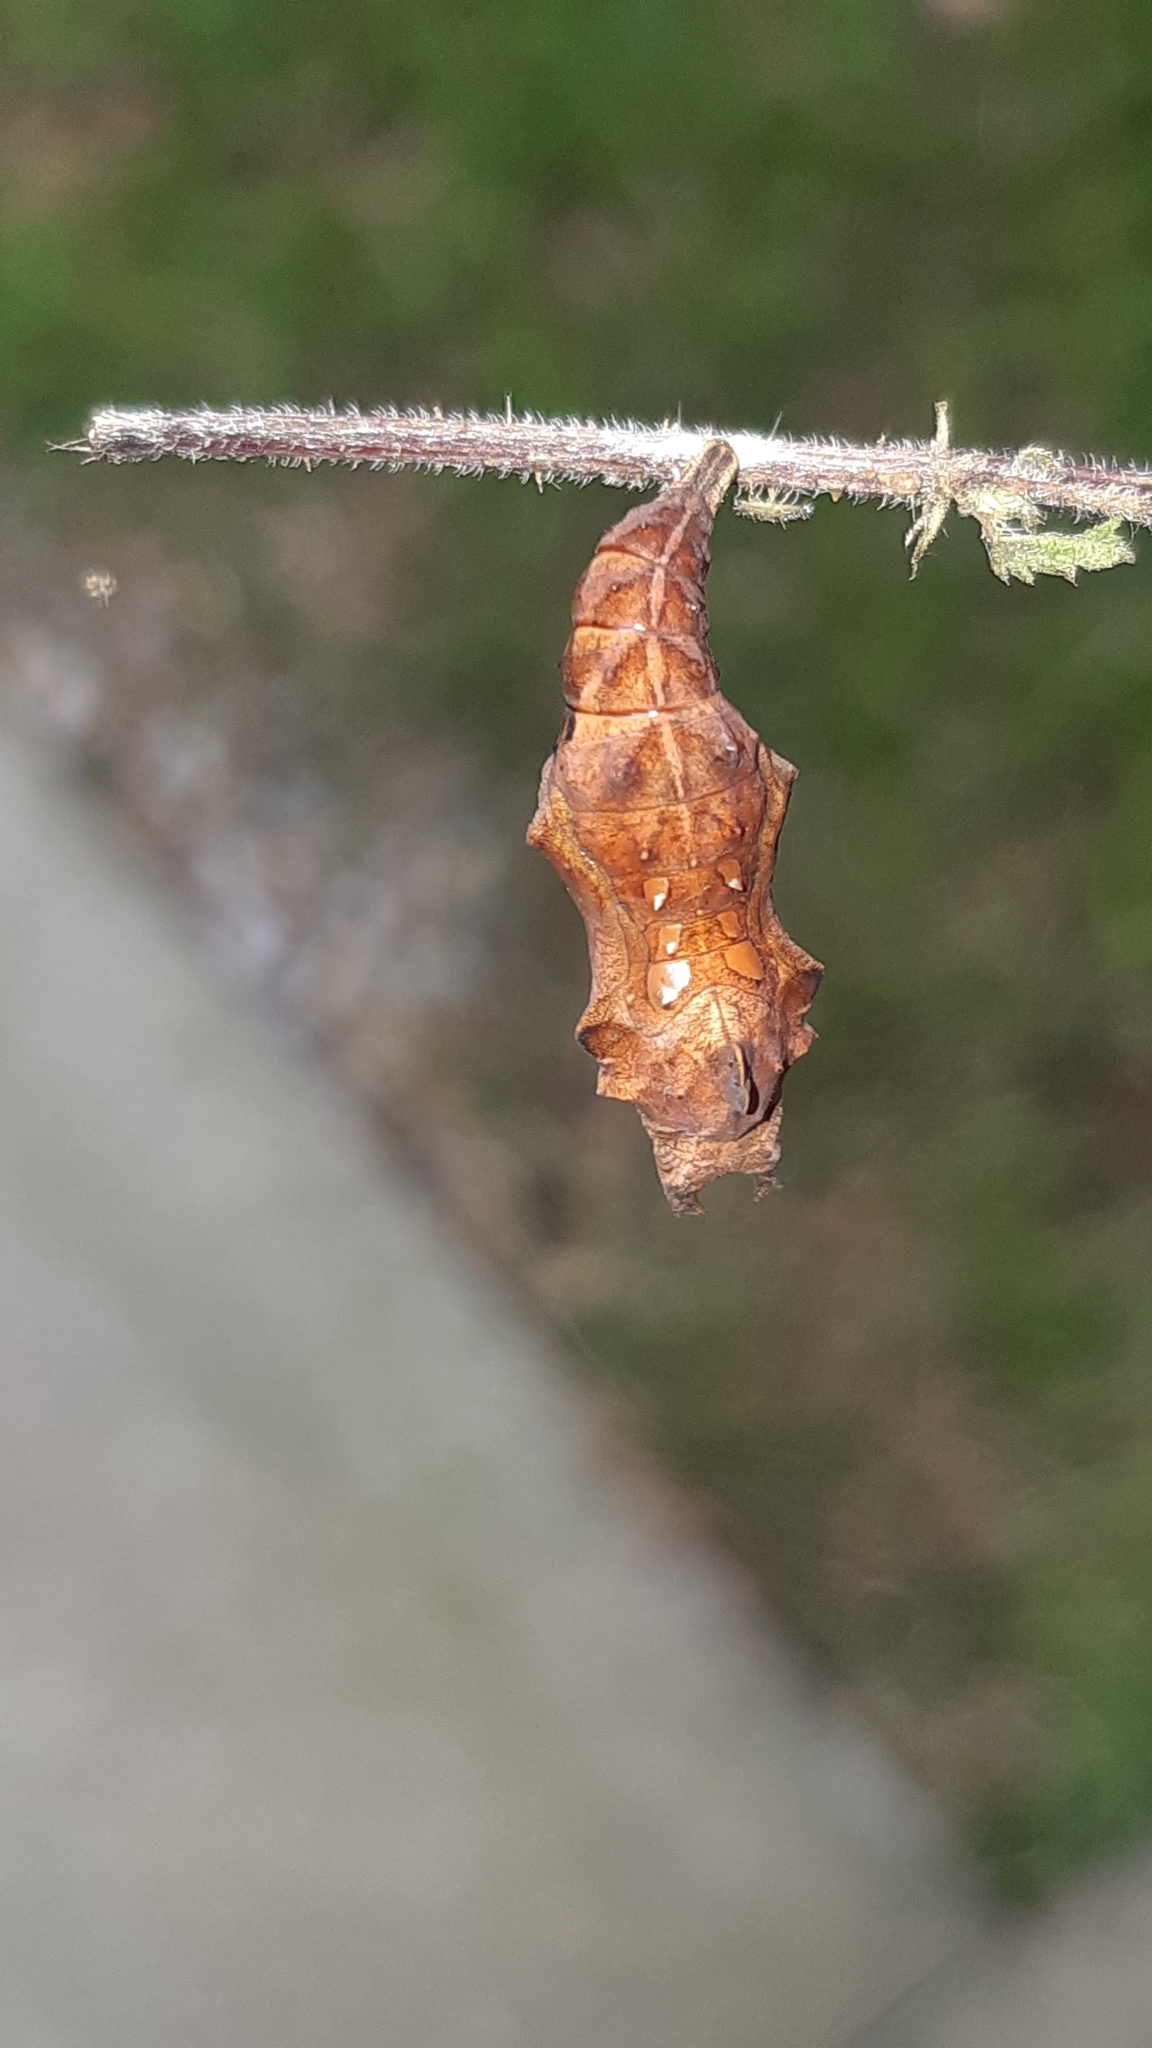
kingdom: Animalia
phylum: Arthropoda
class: Insecta
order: Lepidoptera
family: Nymphalidae
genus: Polygonia
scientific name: Polygonia c-album
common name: Comma
